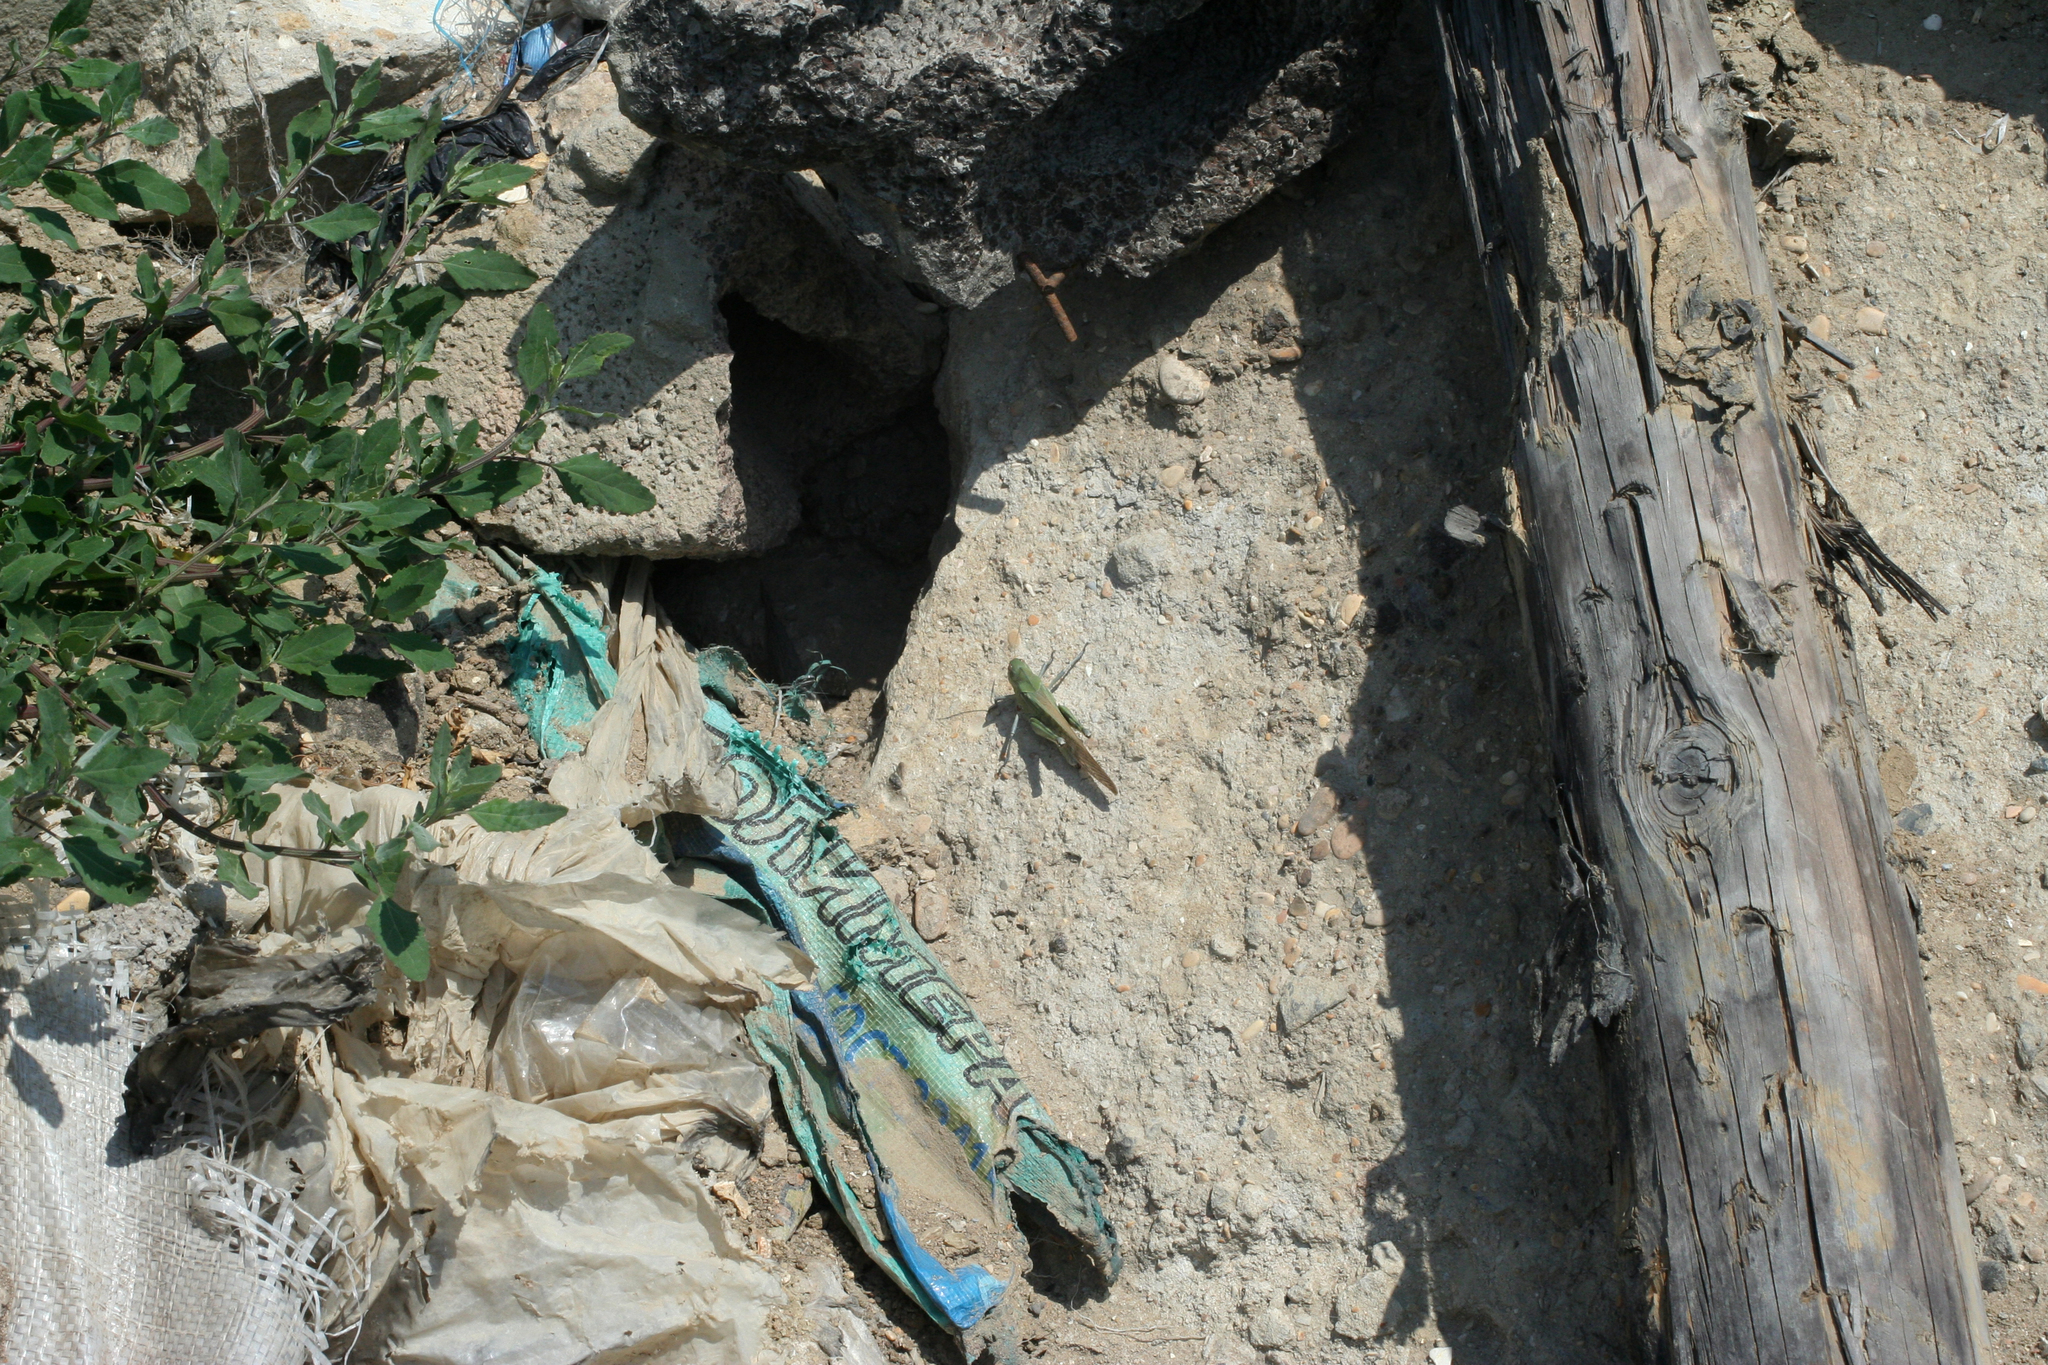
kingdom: Animalia
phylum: Arthropoda
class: Insecta
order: Orthoptera
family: Acrididae
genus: Locusta
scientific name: Locusta migratoria
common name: Migratory locust
